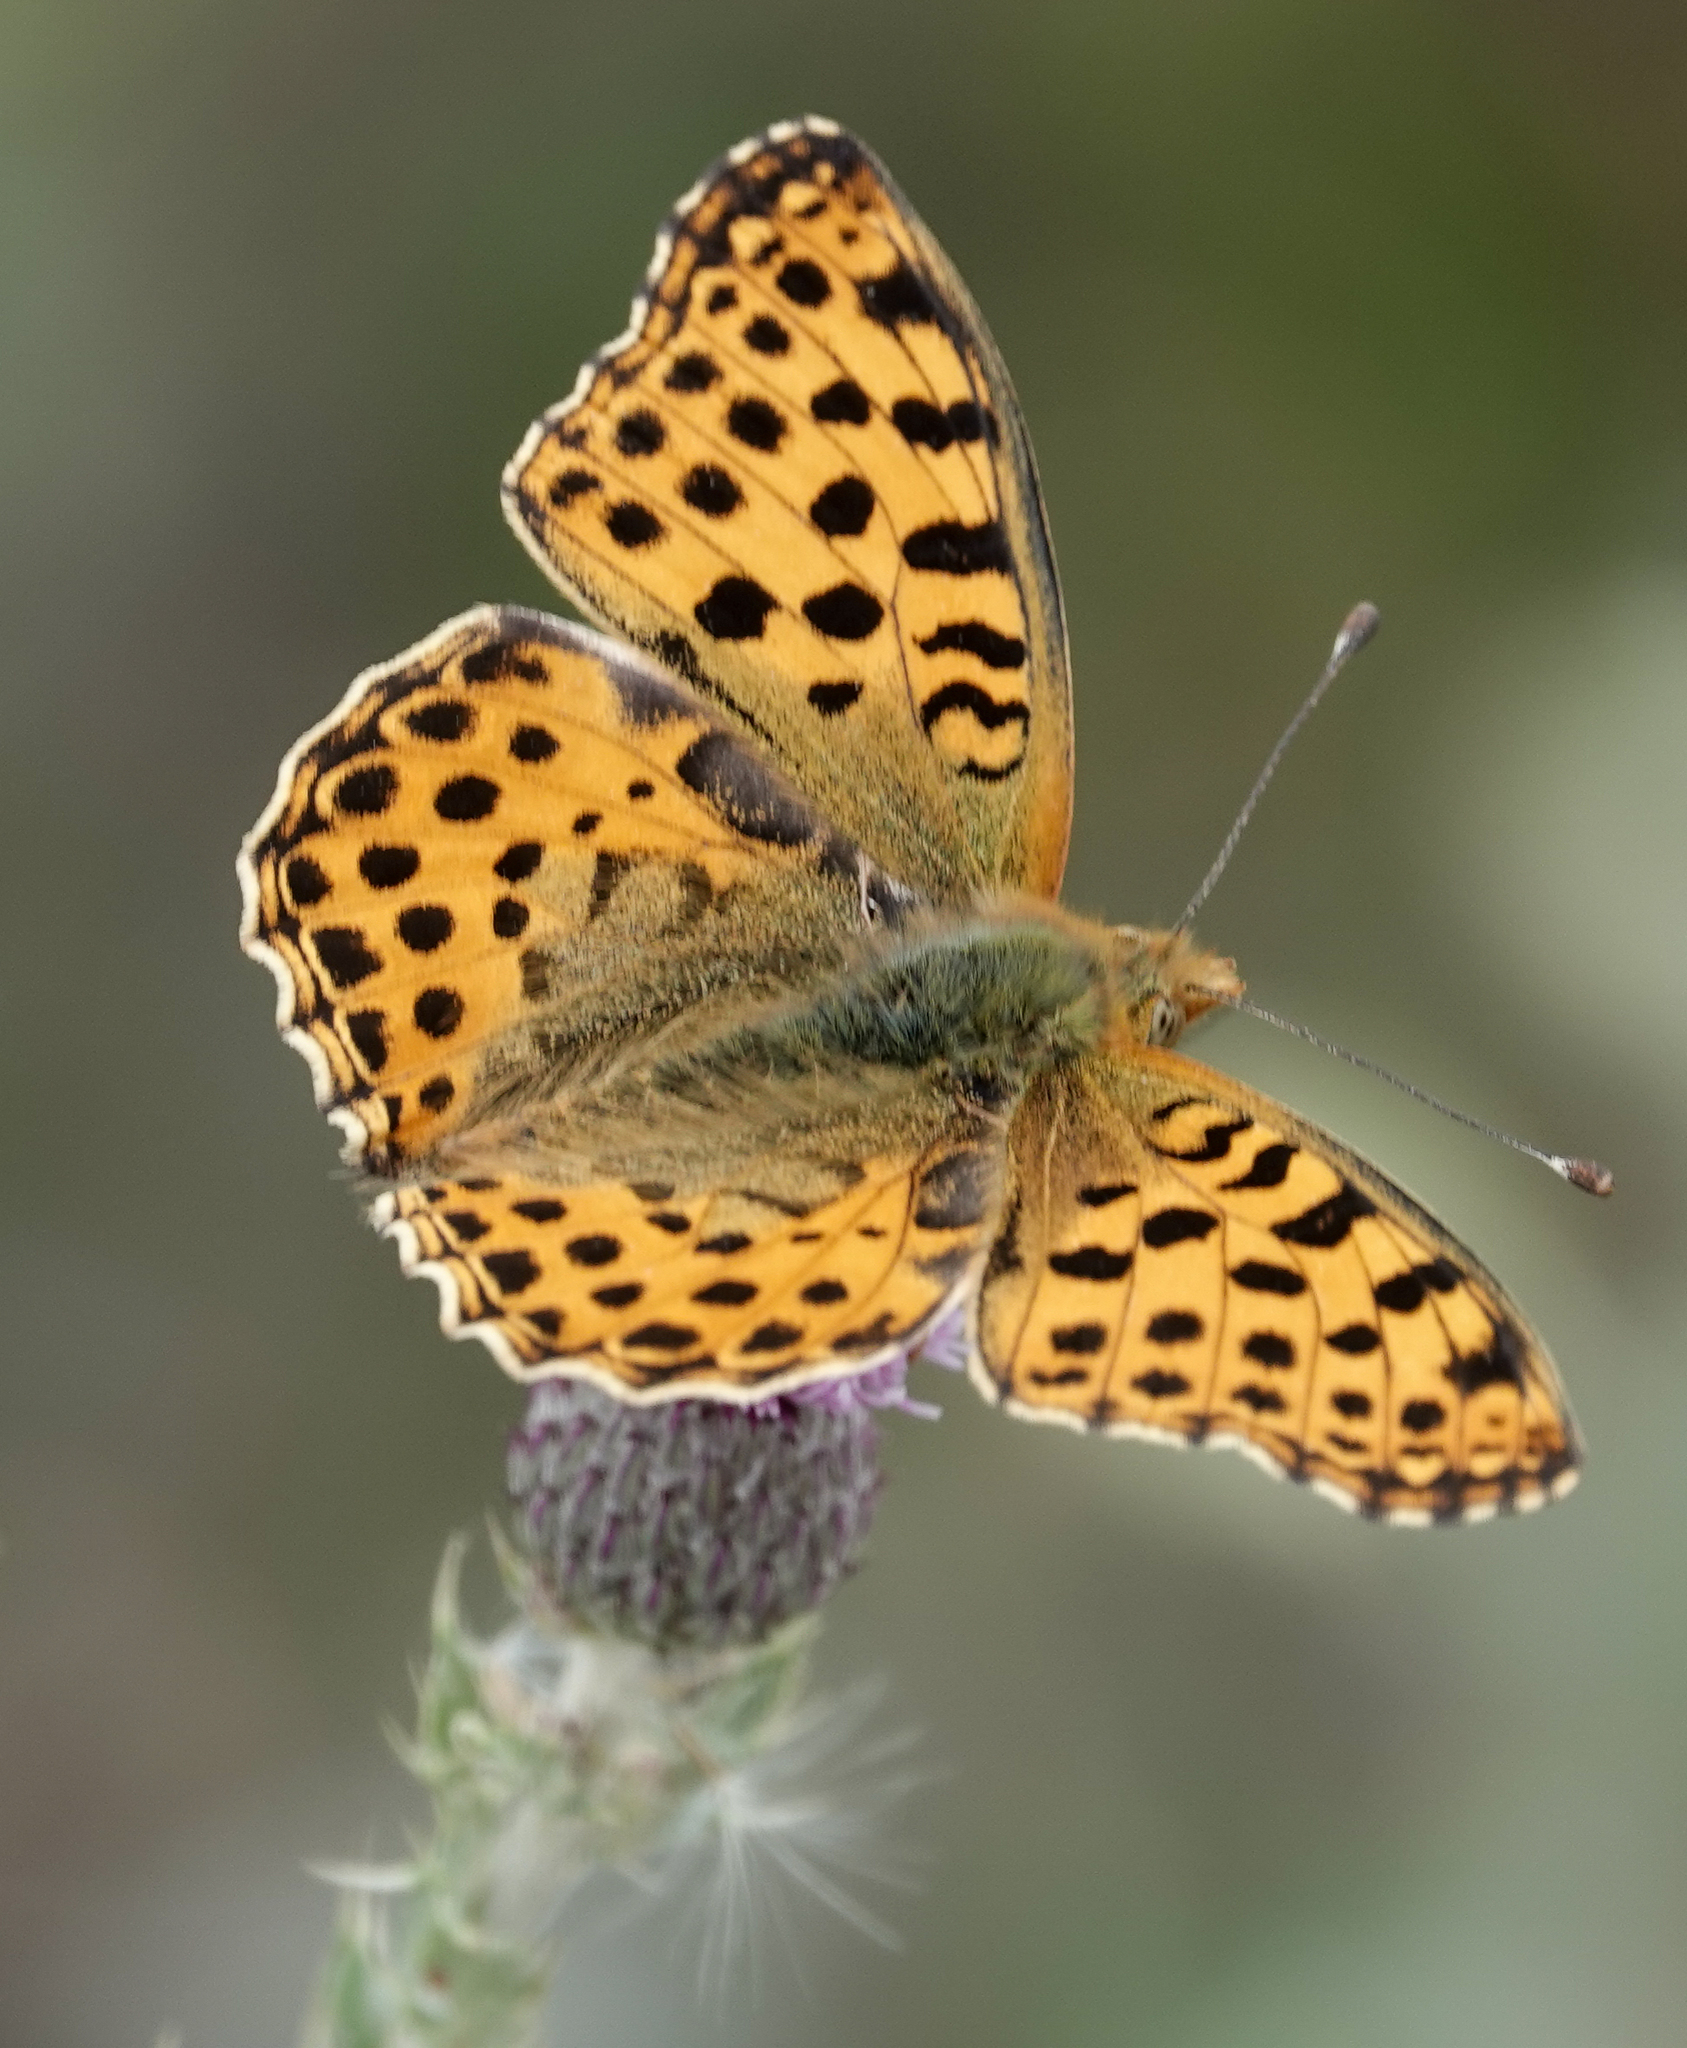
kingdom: Animalia
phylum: Arthropoda
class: Insecta
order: Lepidoptera
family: Nymphalidae
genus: Issoria
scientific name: Issoria lathonia
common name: Queen of spain fritillary
